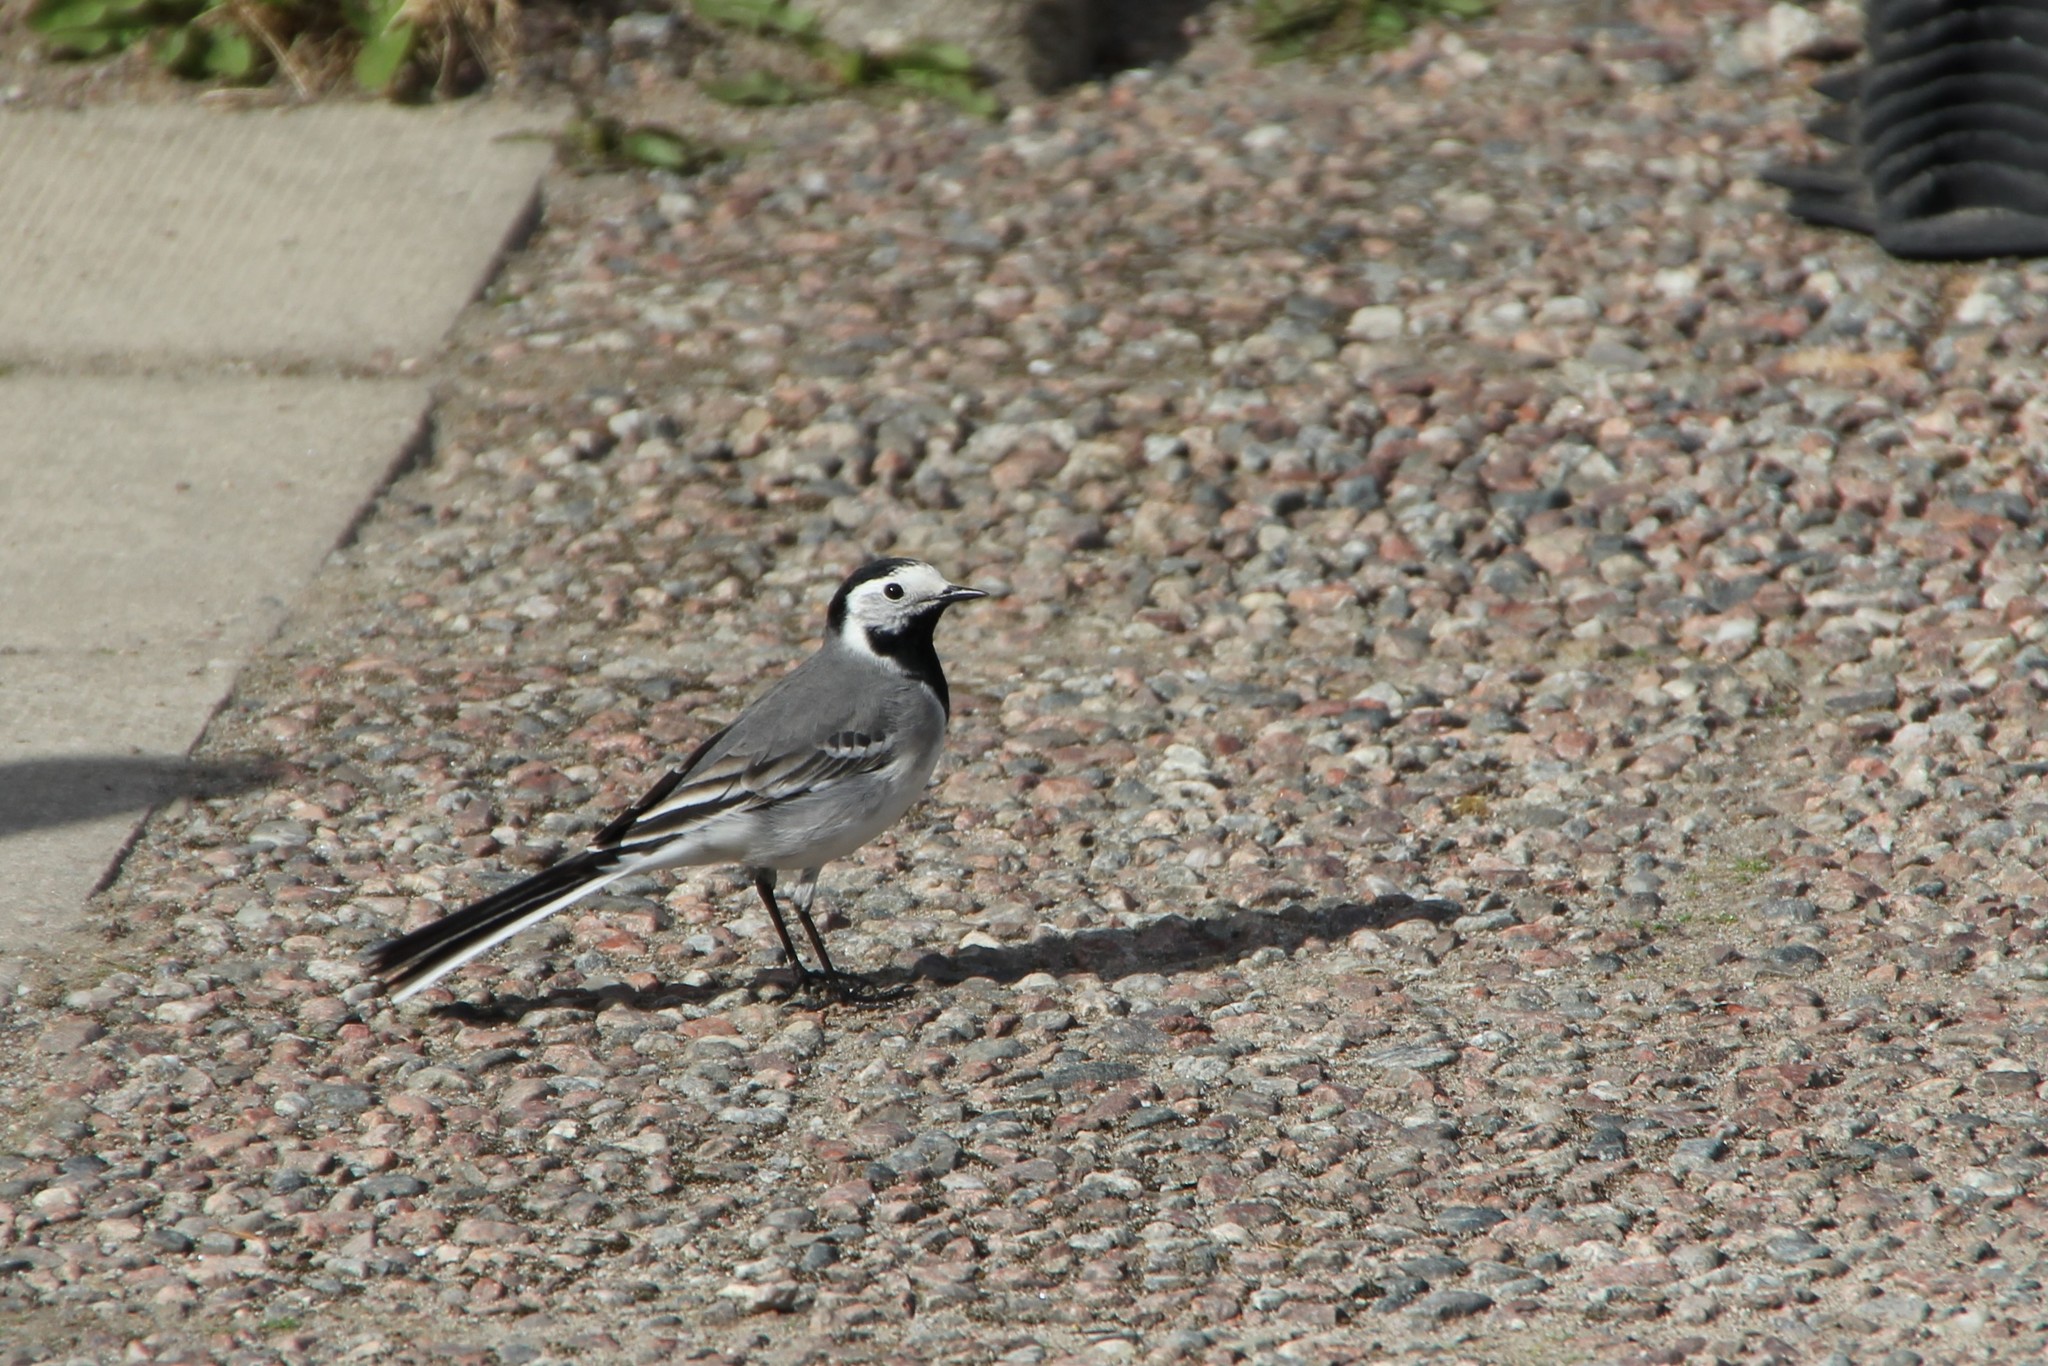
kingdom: Animalia
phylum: Chordata
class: Aves
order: Passeriformes
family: Motacillidae
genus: Motacilla
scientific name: Motacilla alba
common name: White wagtail
